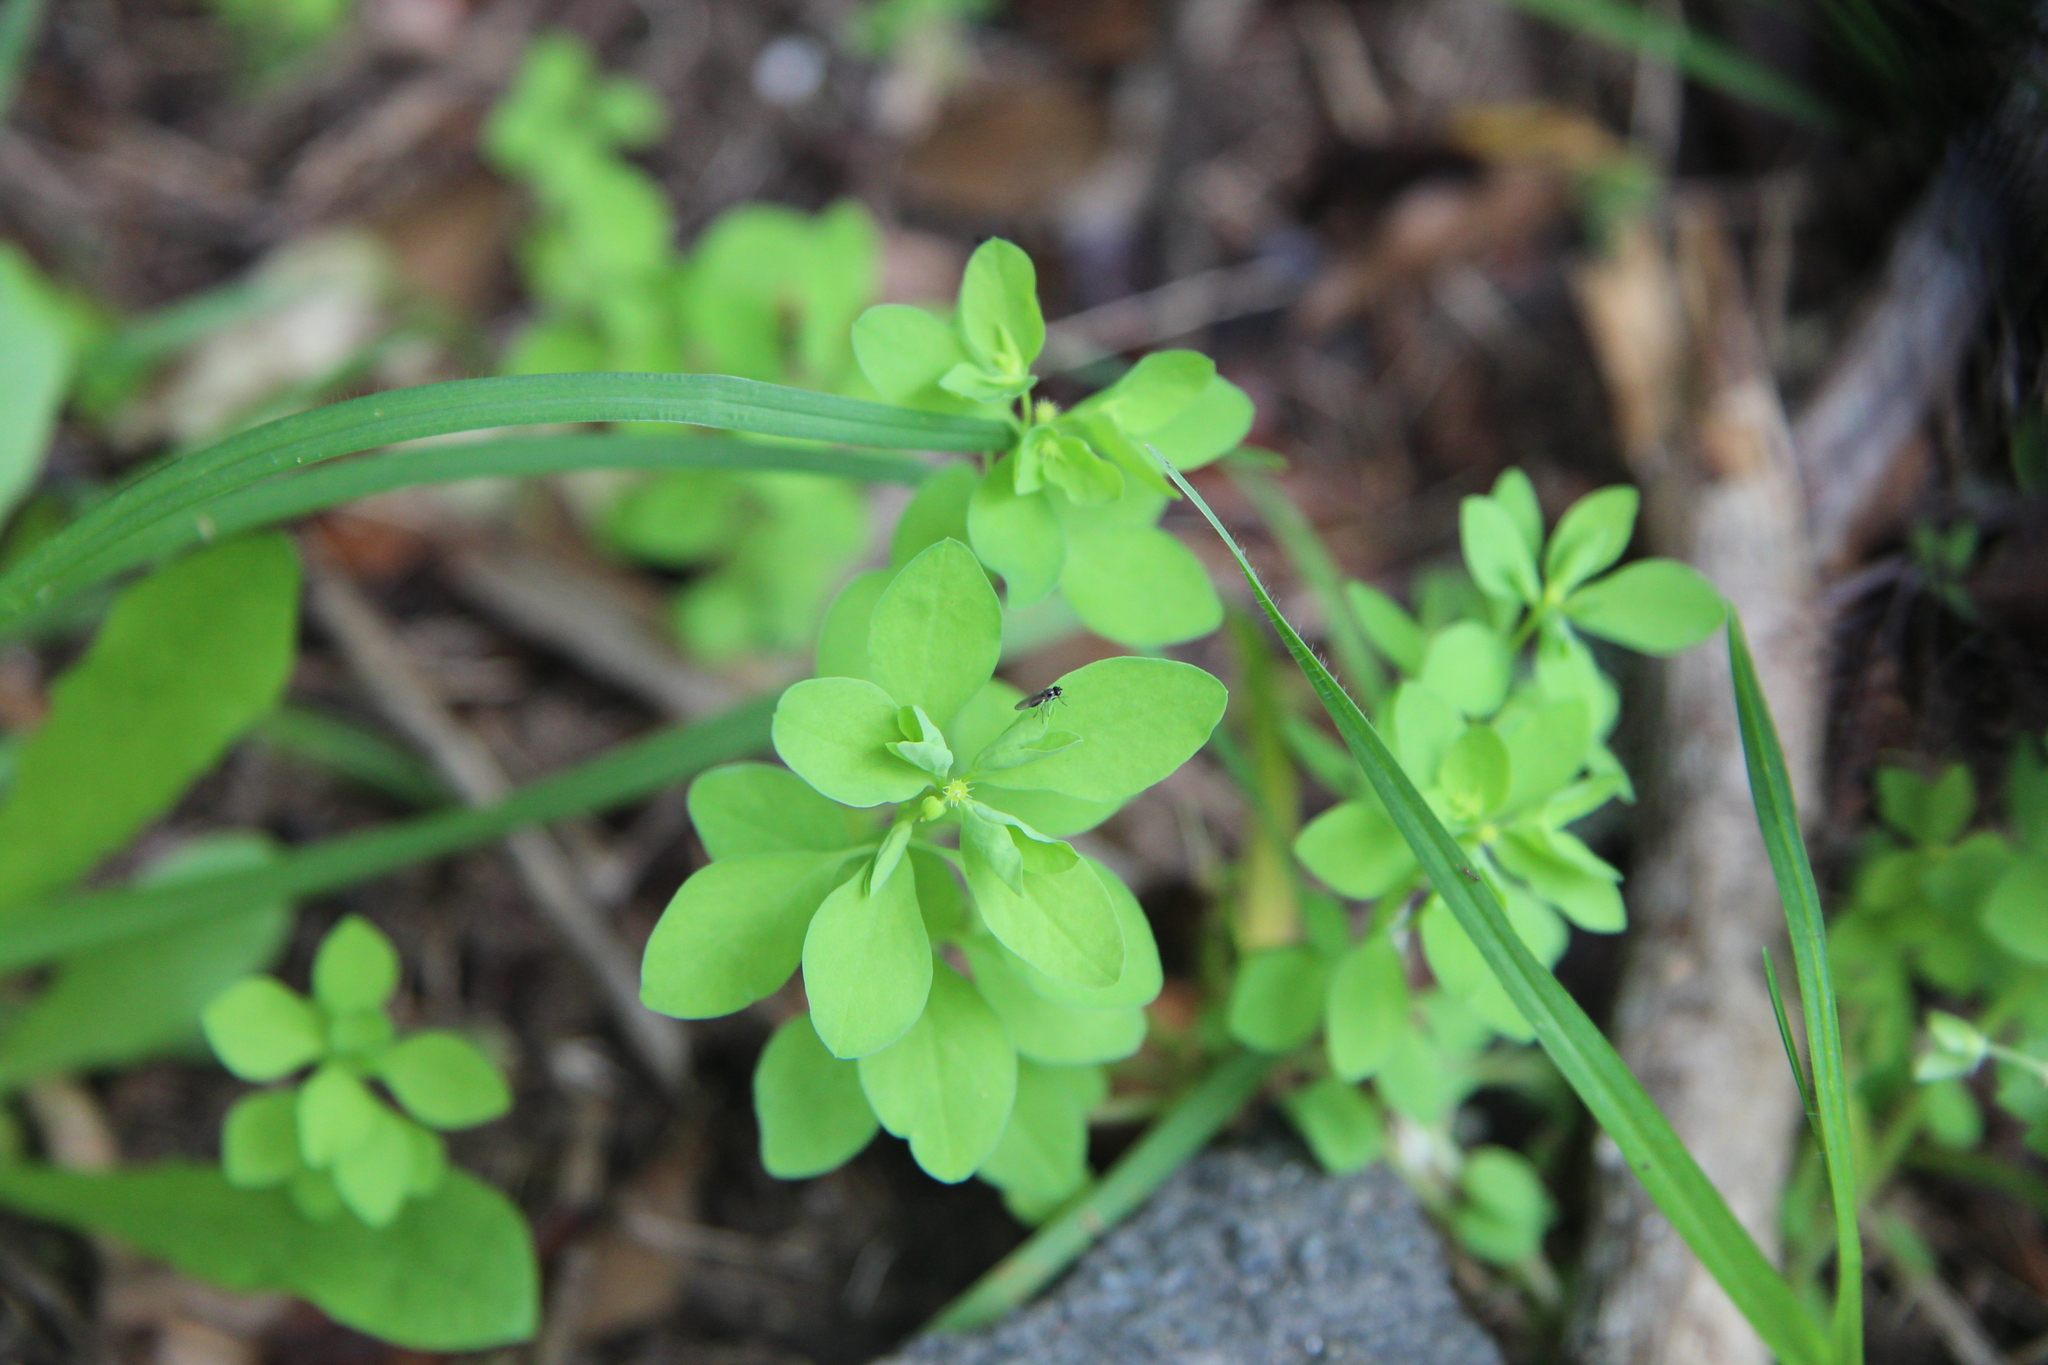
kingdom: Animalia
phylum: Arthropoda
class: Insecta
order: Diptera
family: Ephydridae
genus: Hydrellia
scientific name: Hydrellia tritici
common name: Shore fly
